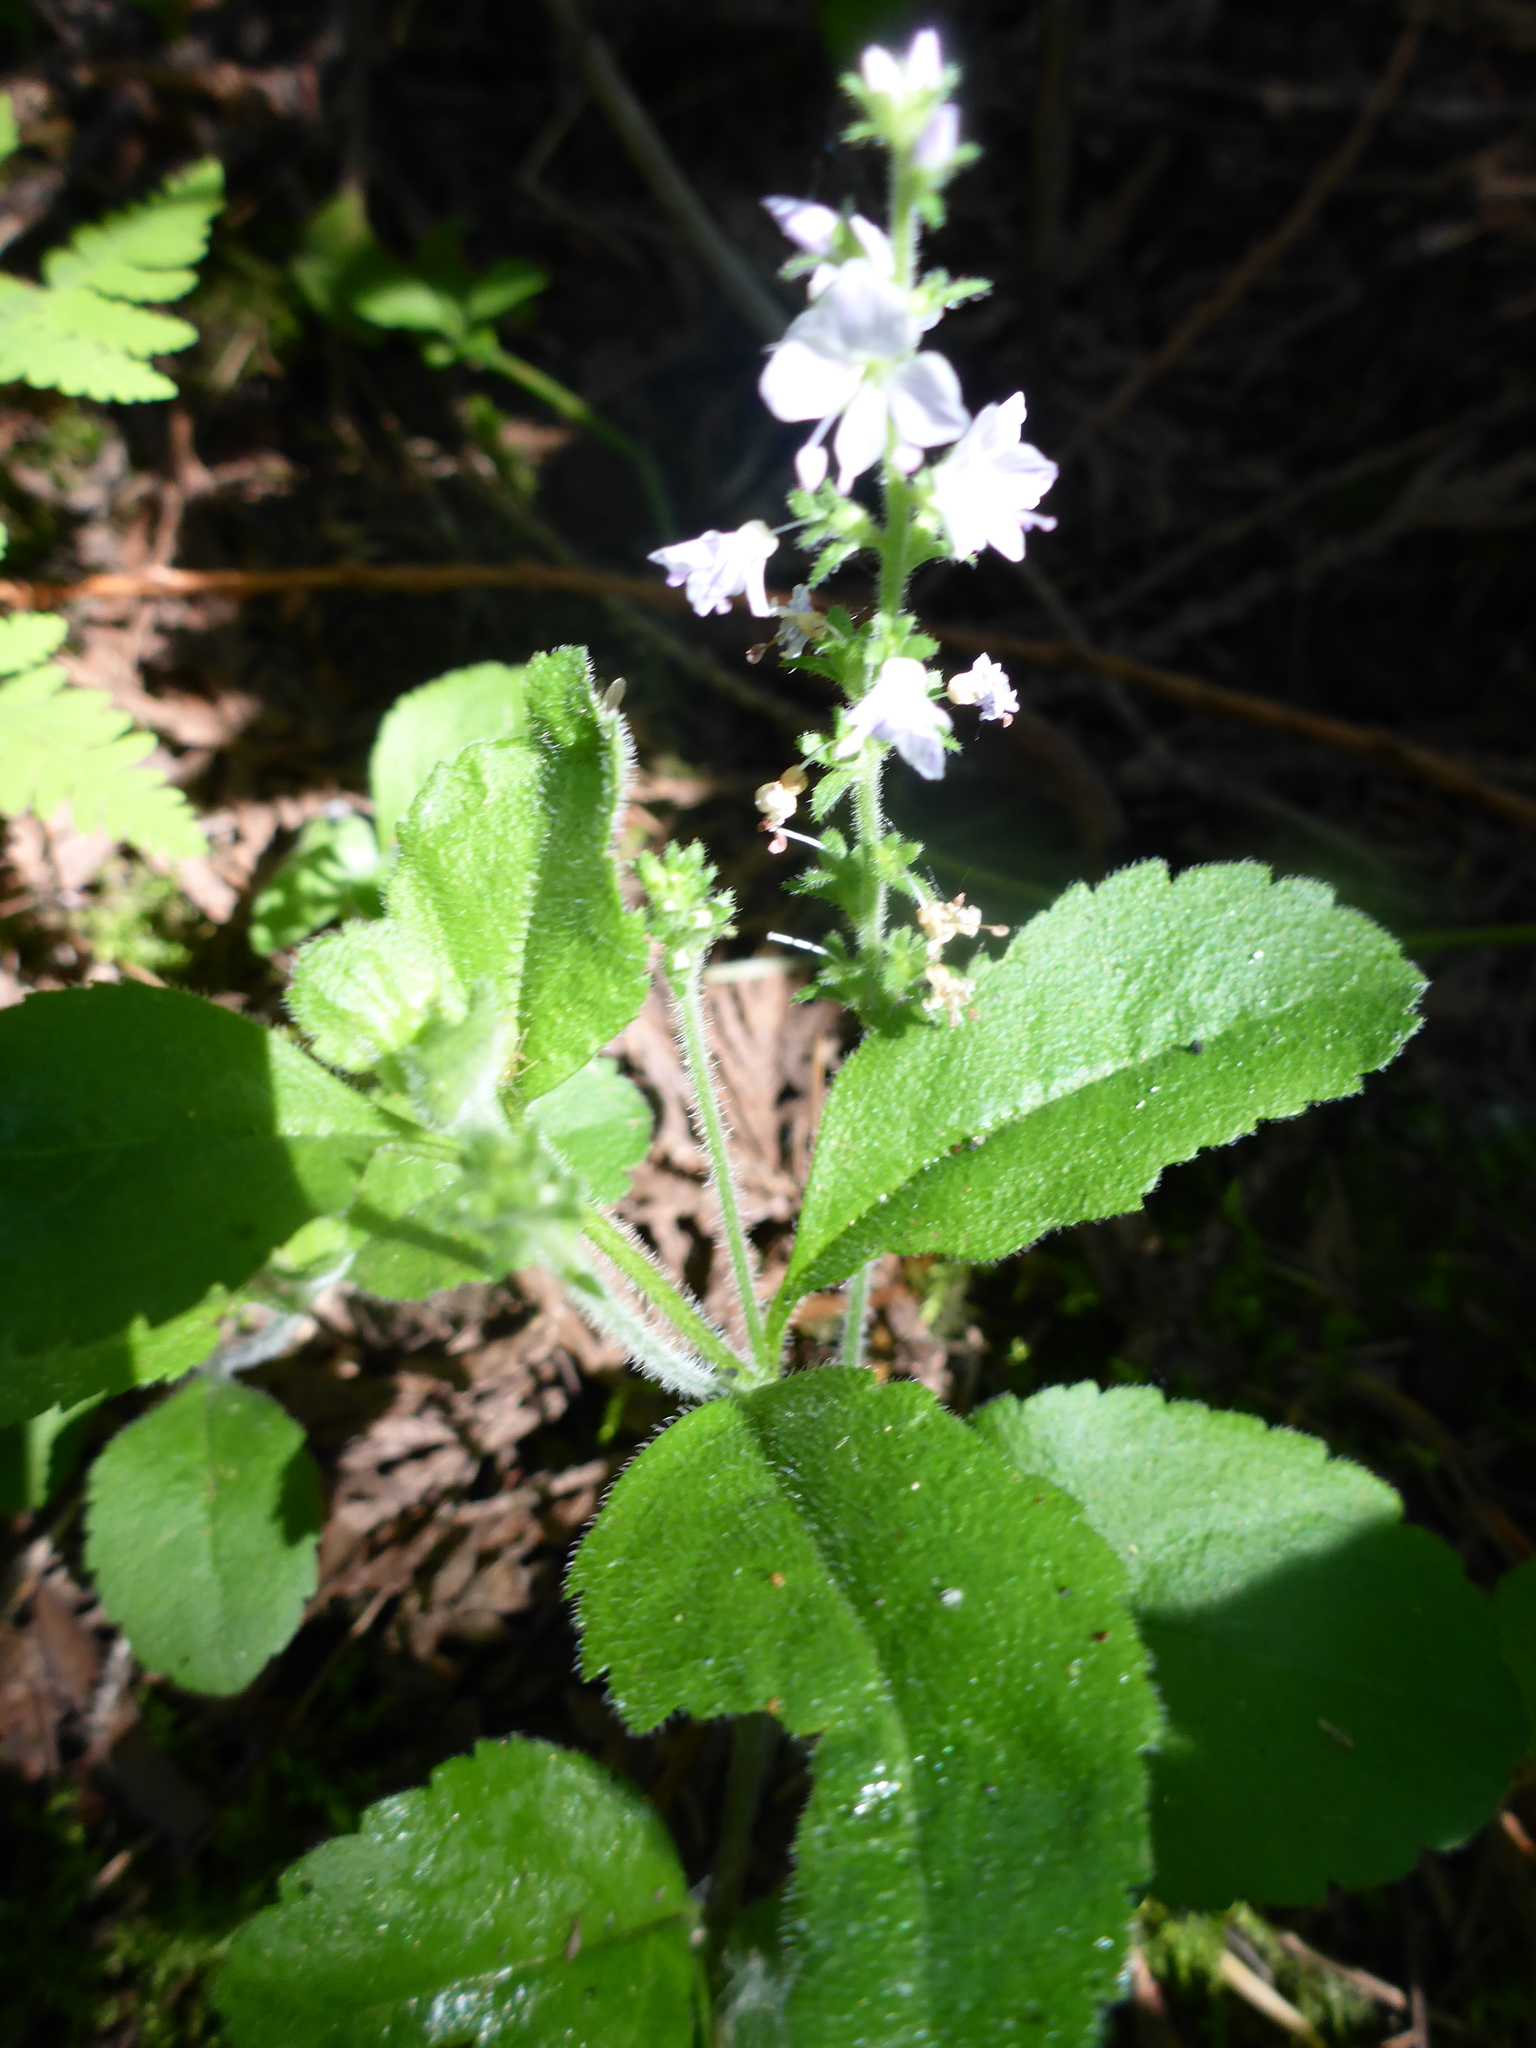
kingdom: Plantae
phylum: Tracheophyta
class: Magnoliopsida
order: Lamiales
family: Plantaginaceae
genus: Veronica
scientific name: Veronica officinalis
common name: Common speedwell
